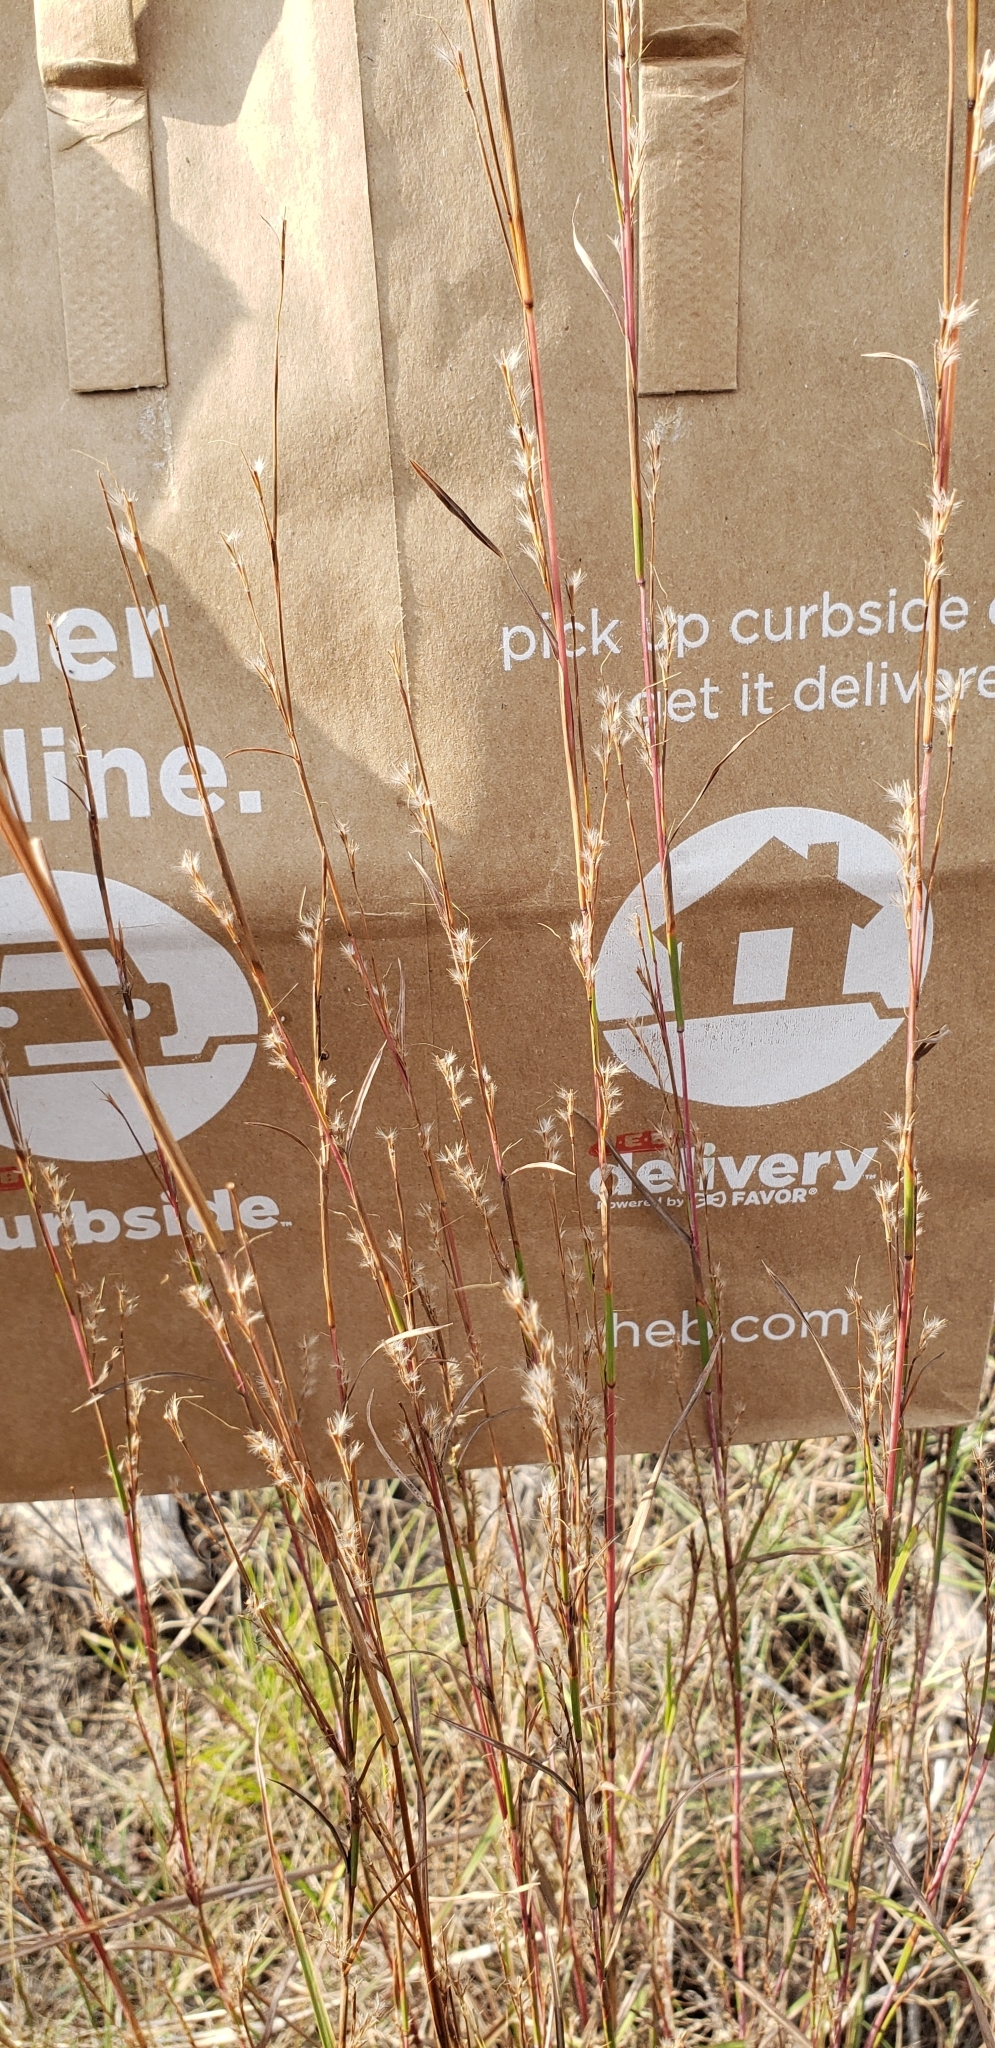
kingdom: Plantae
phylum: Tracheophyta
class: Liliopsida
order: Poales
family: Poaceae
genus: Schizachyrium
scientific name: Schizachyrium scoparium
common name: Little bluestem
